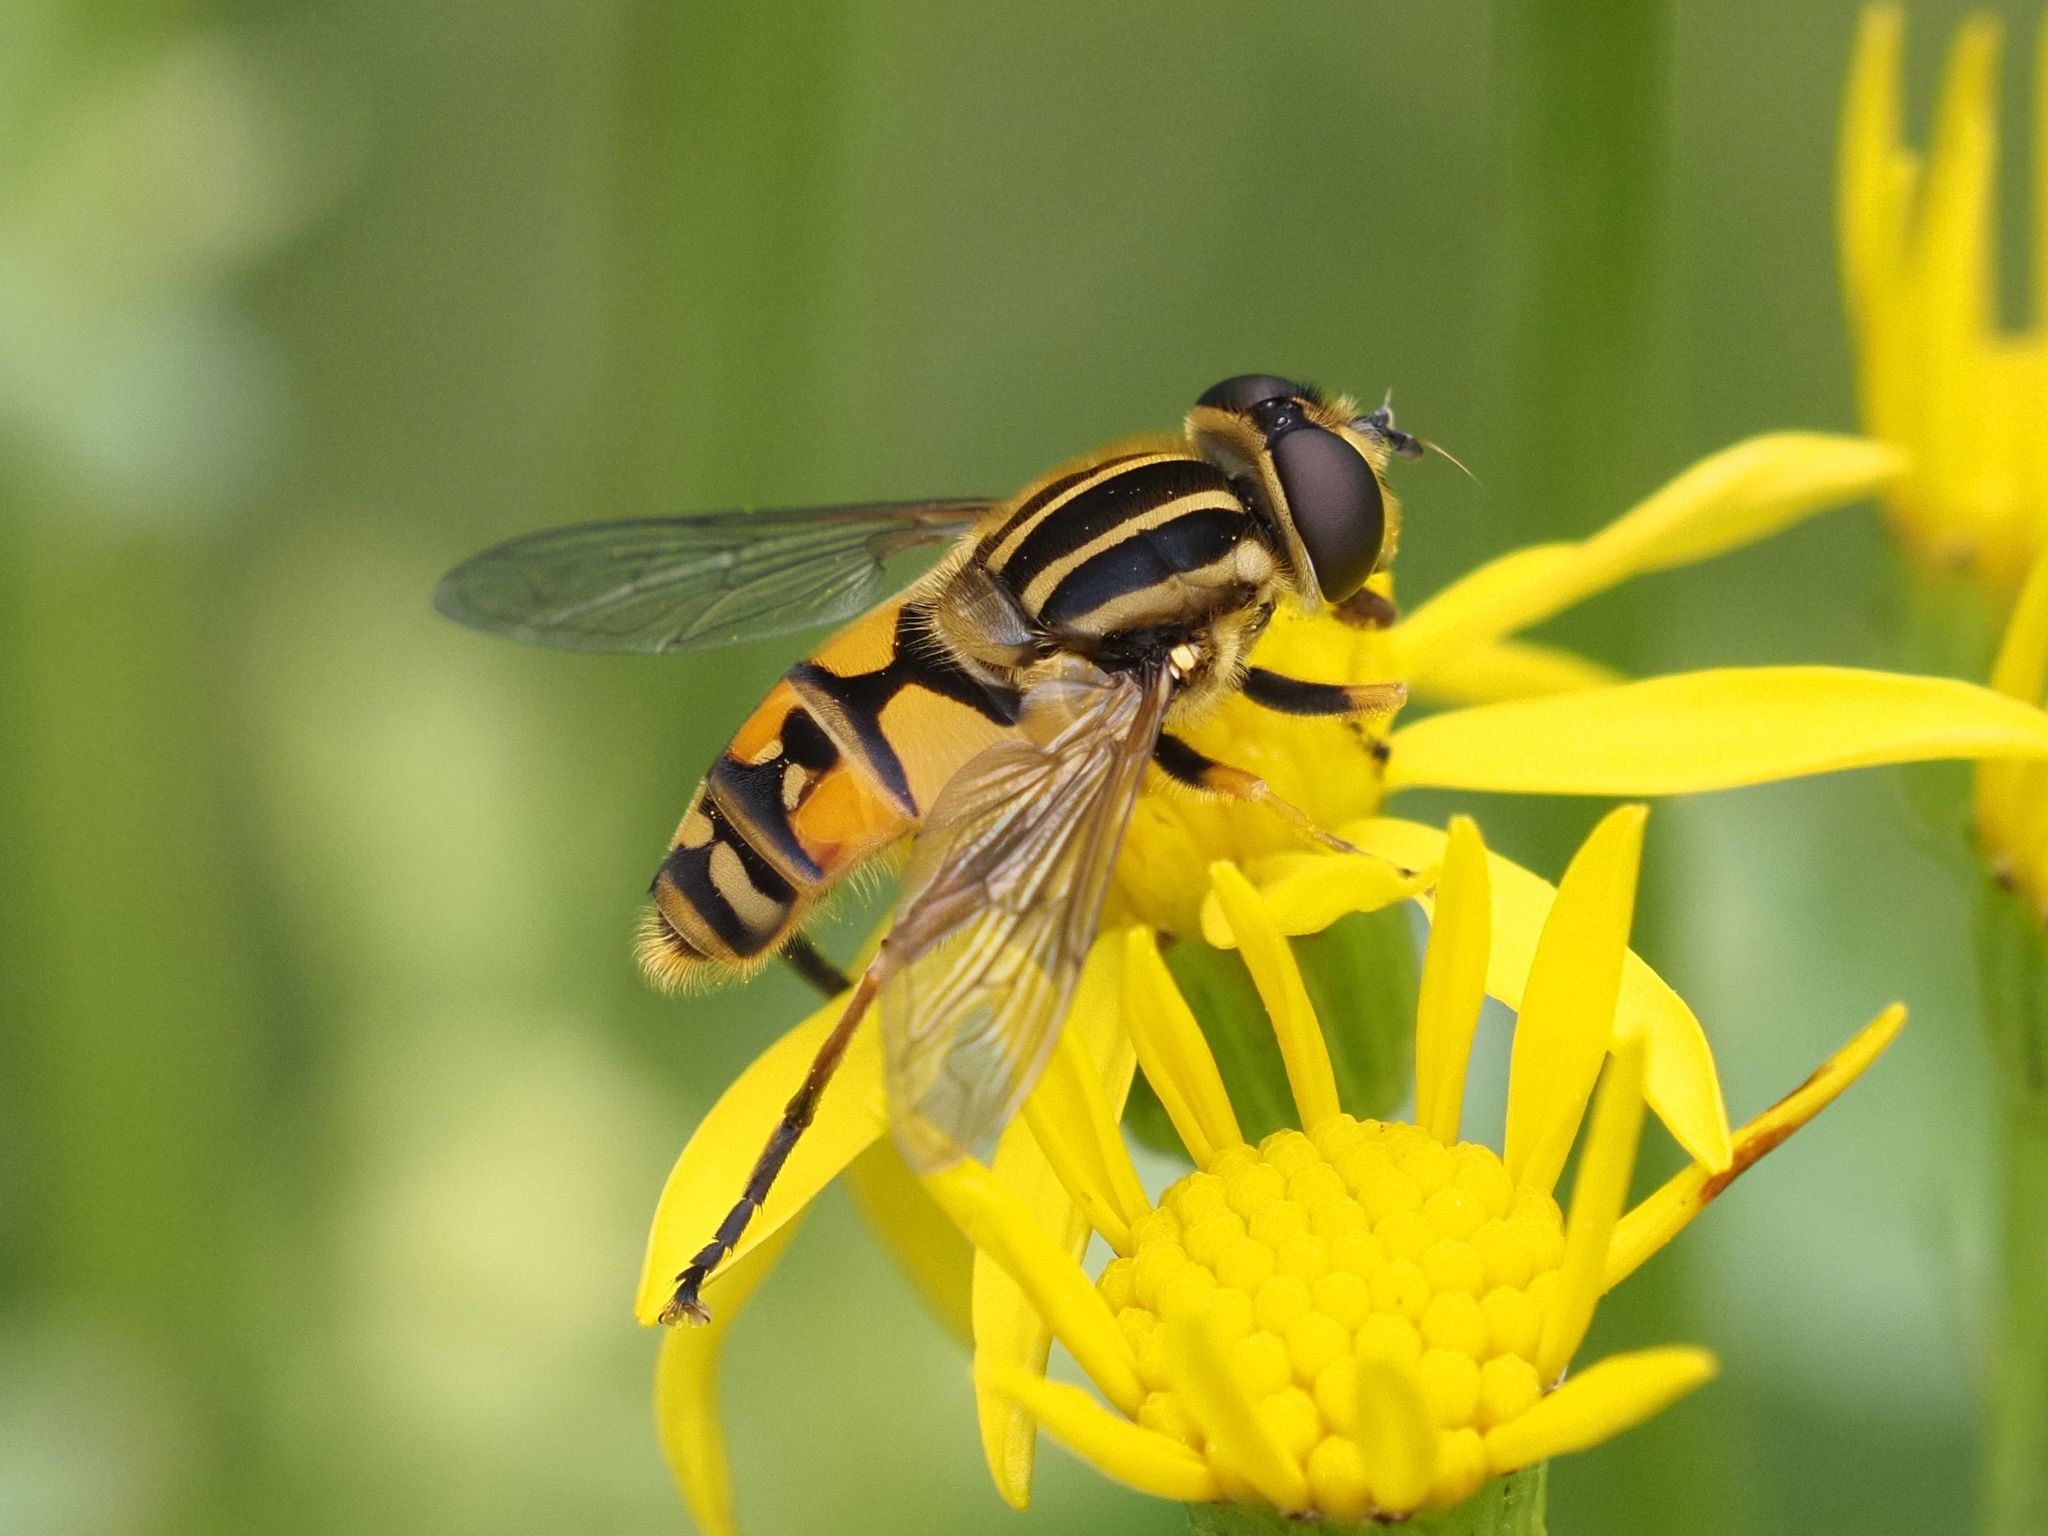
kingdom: Animalia
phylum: Arthropoda
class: Insecta
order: Diptera
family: Syrphidae
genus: Helophilus
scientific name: Helophilus pendulus
